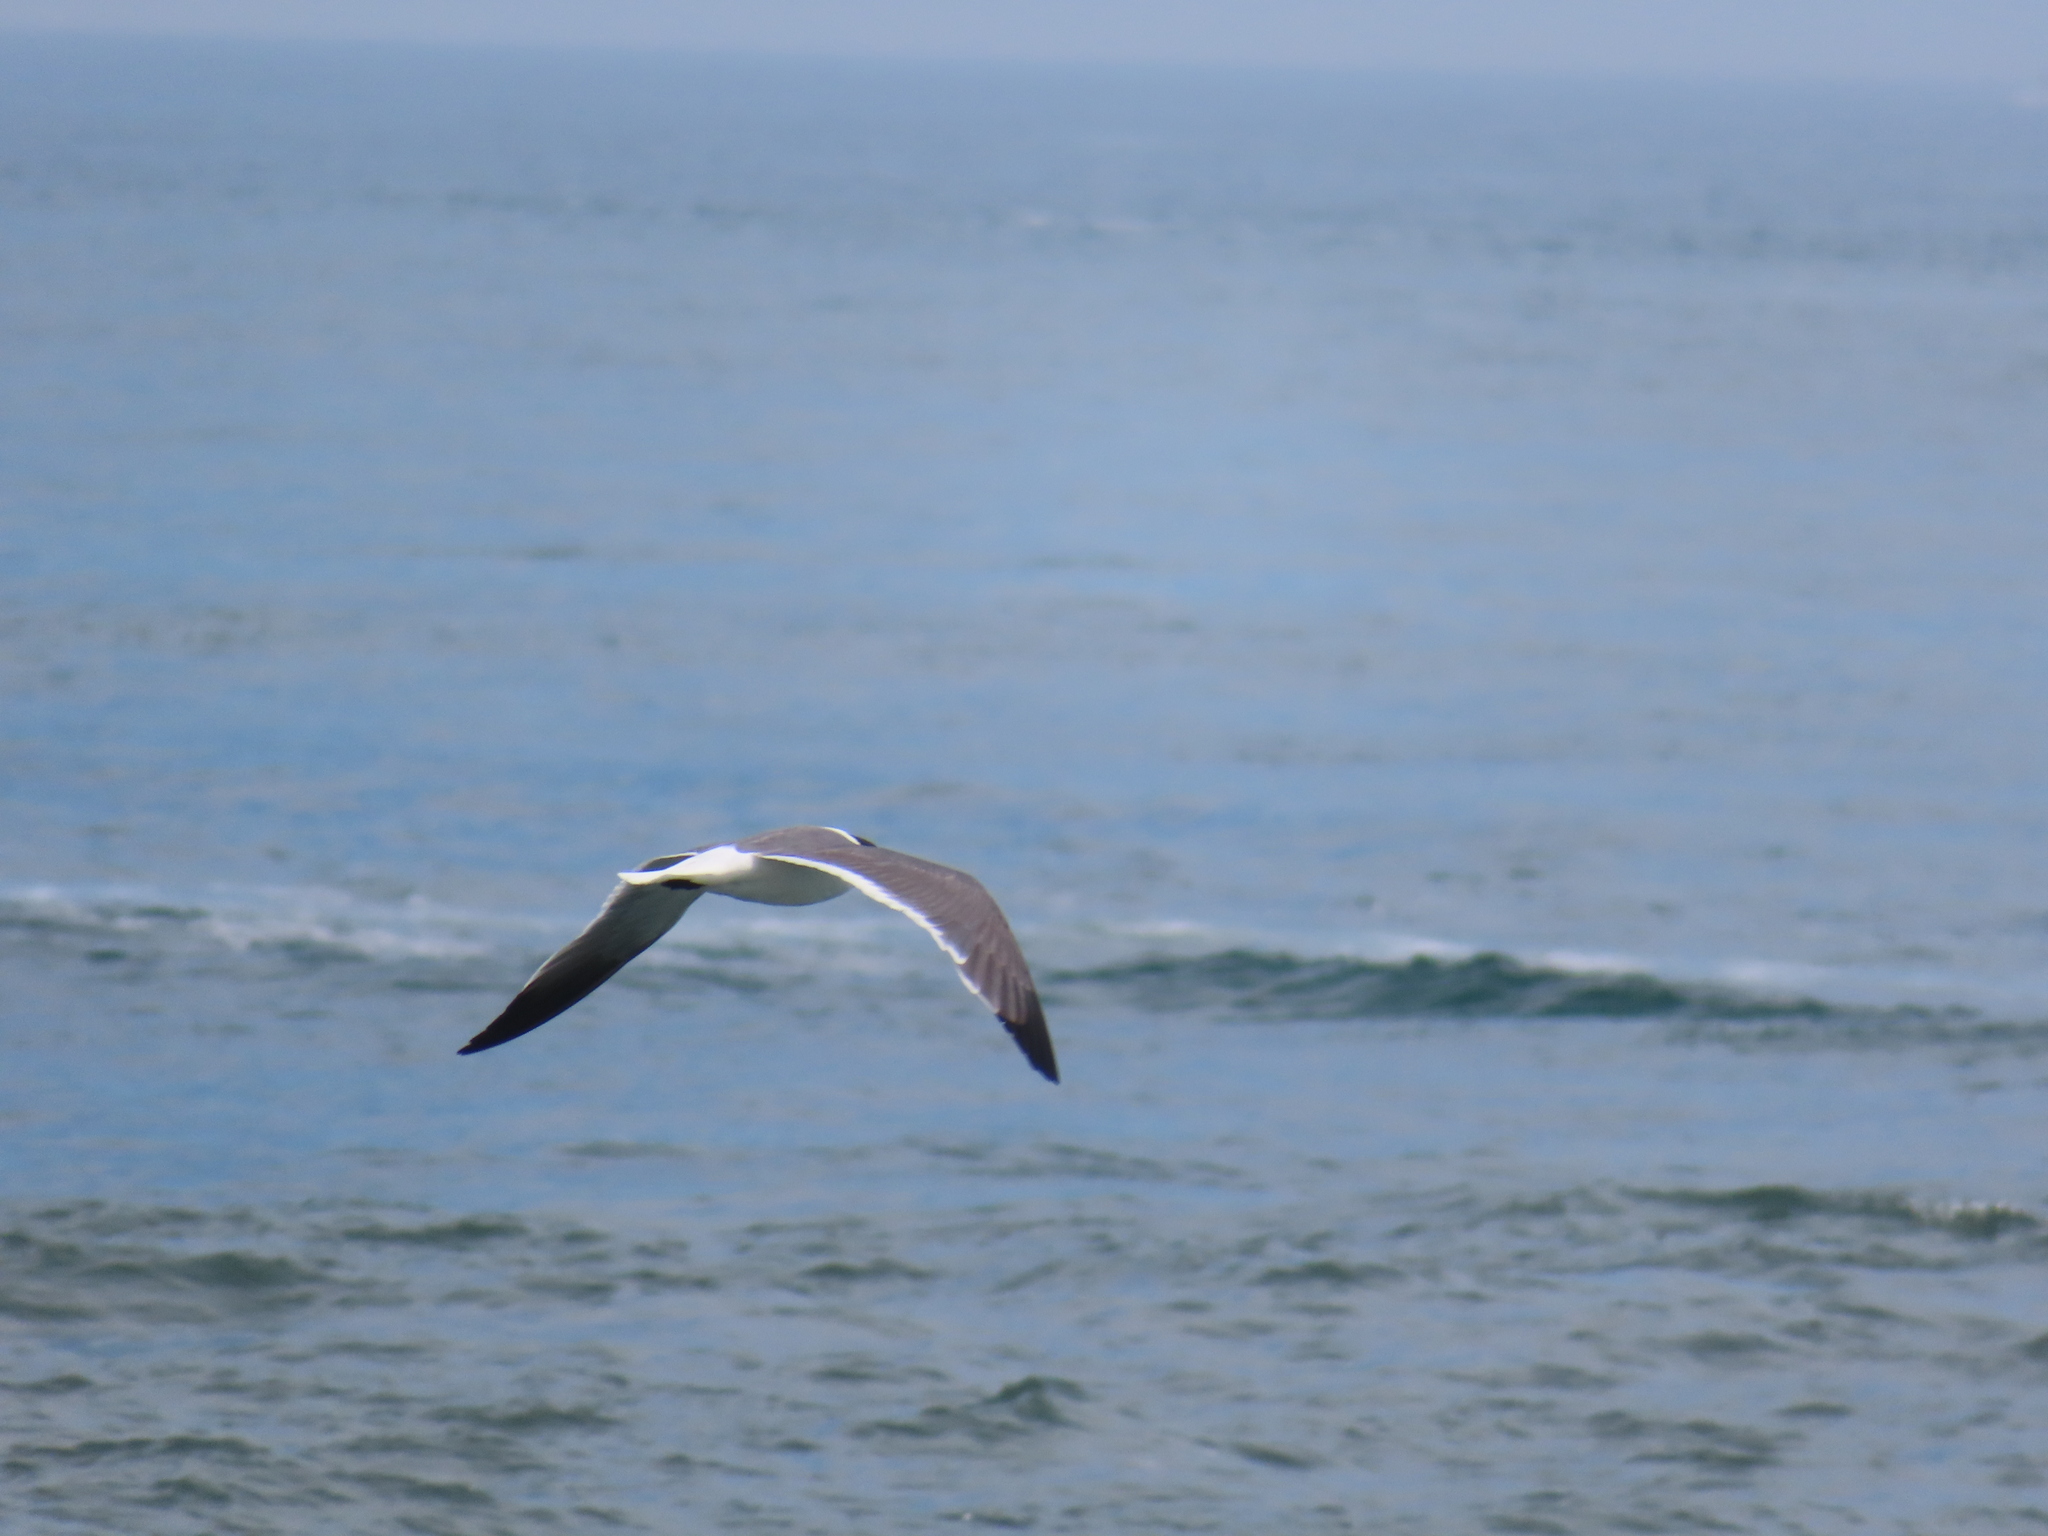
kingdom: Animalia
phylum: Chordata
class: Aves
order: Charadriiformes
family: Laridae
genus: Leucophaeus
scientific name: Leucophaeus atricilla
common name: Laughing gull
